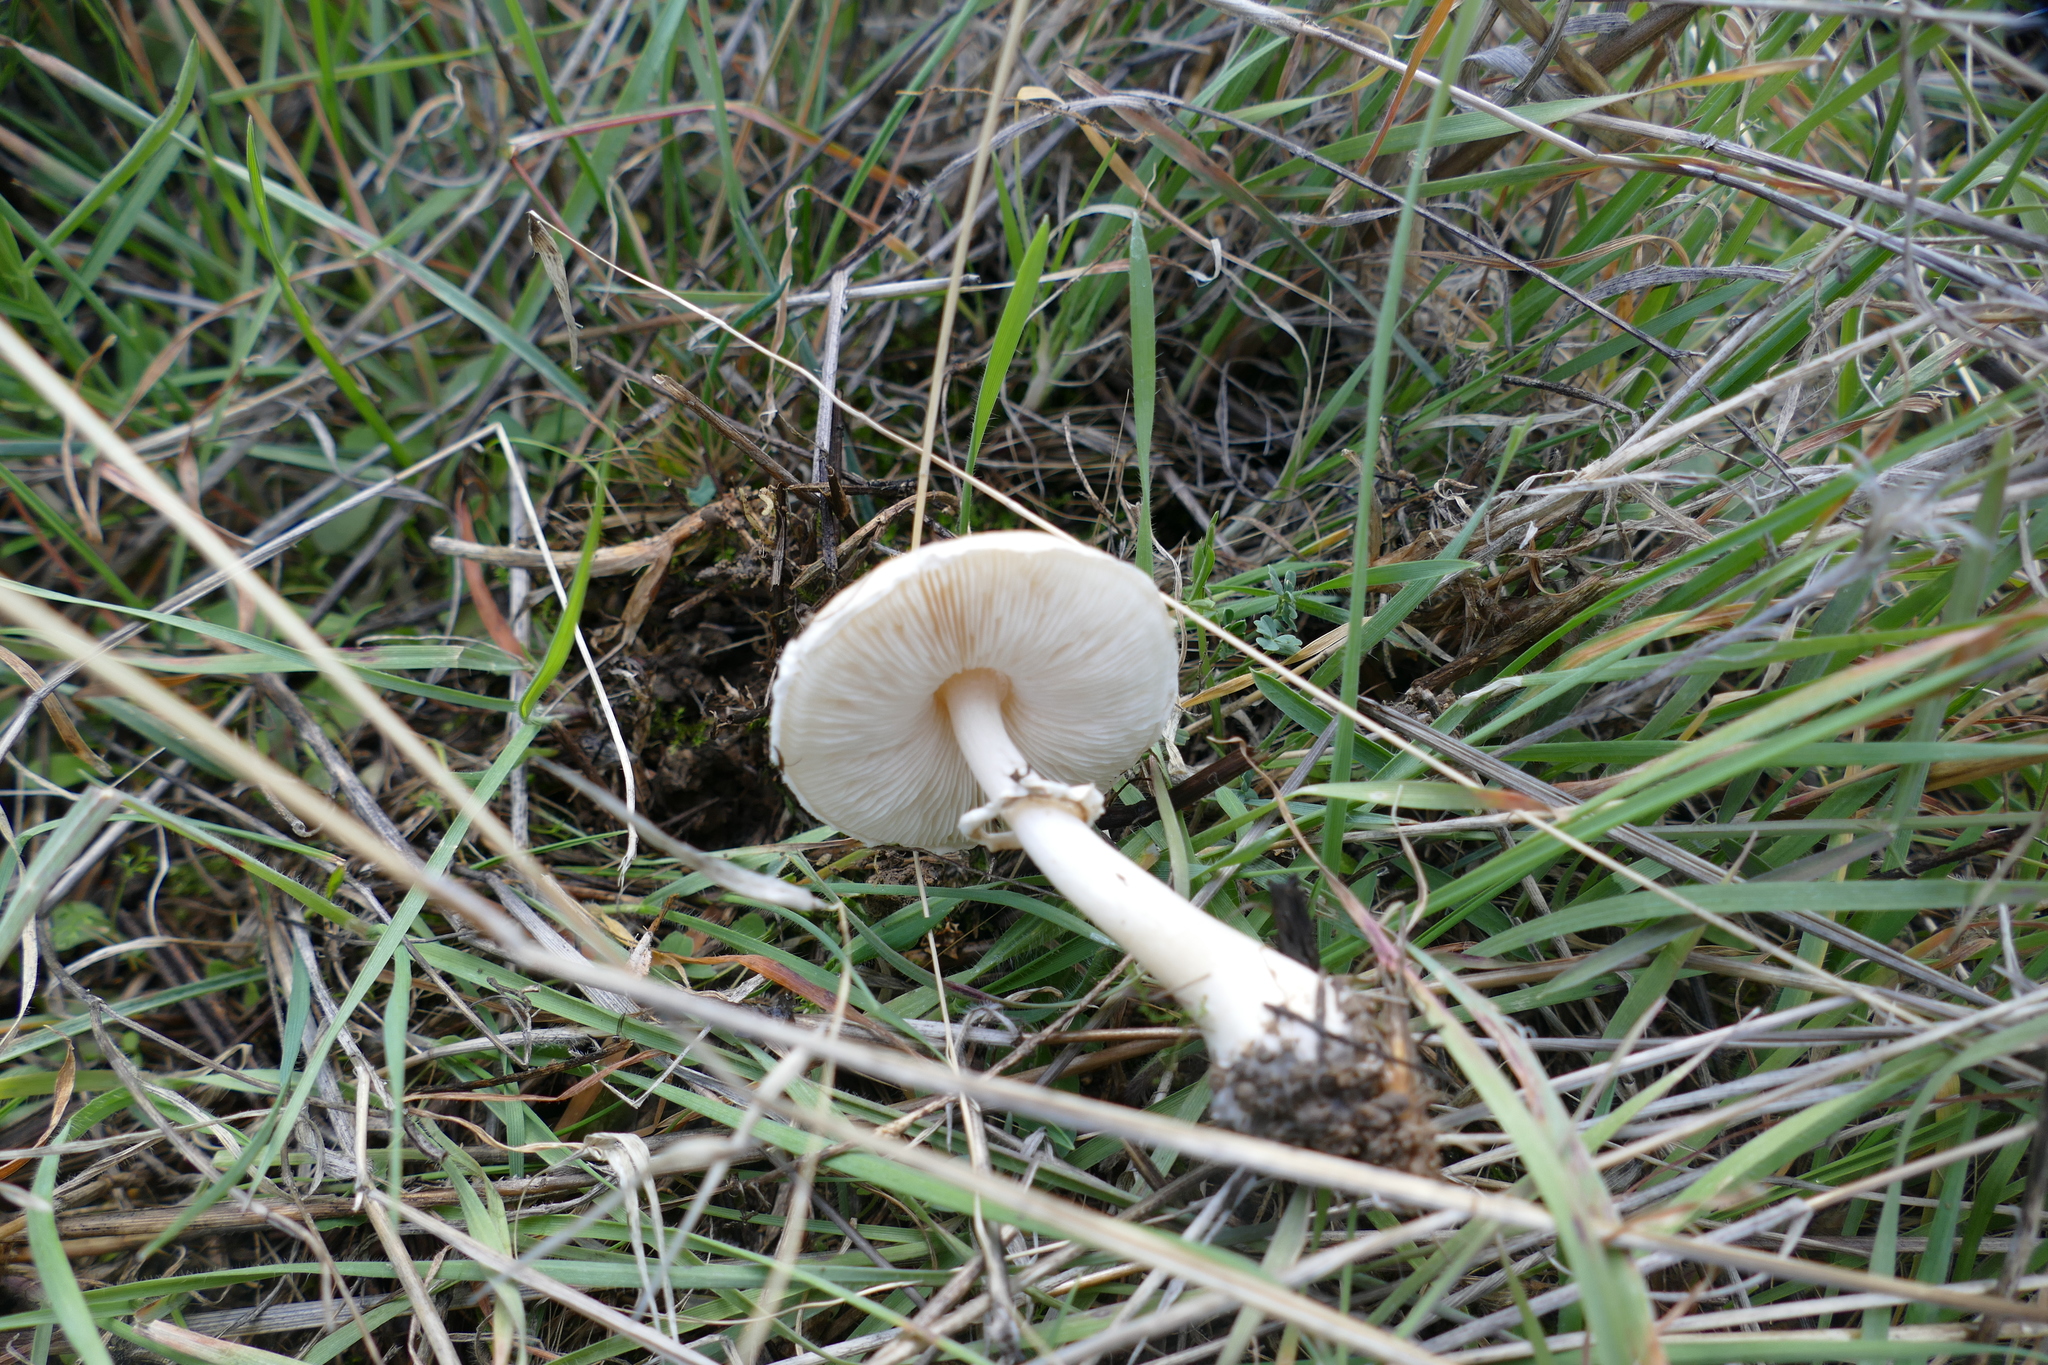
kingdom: Fungi
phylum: Basidiomycota
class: Agaricomycetes
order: Agaricales
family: Agaricaceae
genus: Leucoagaricus
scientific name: Leucoagaricus leucothites
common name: White dapperling
